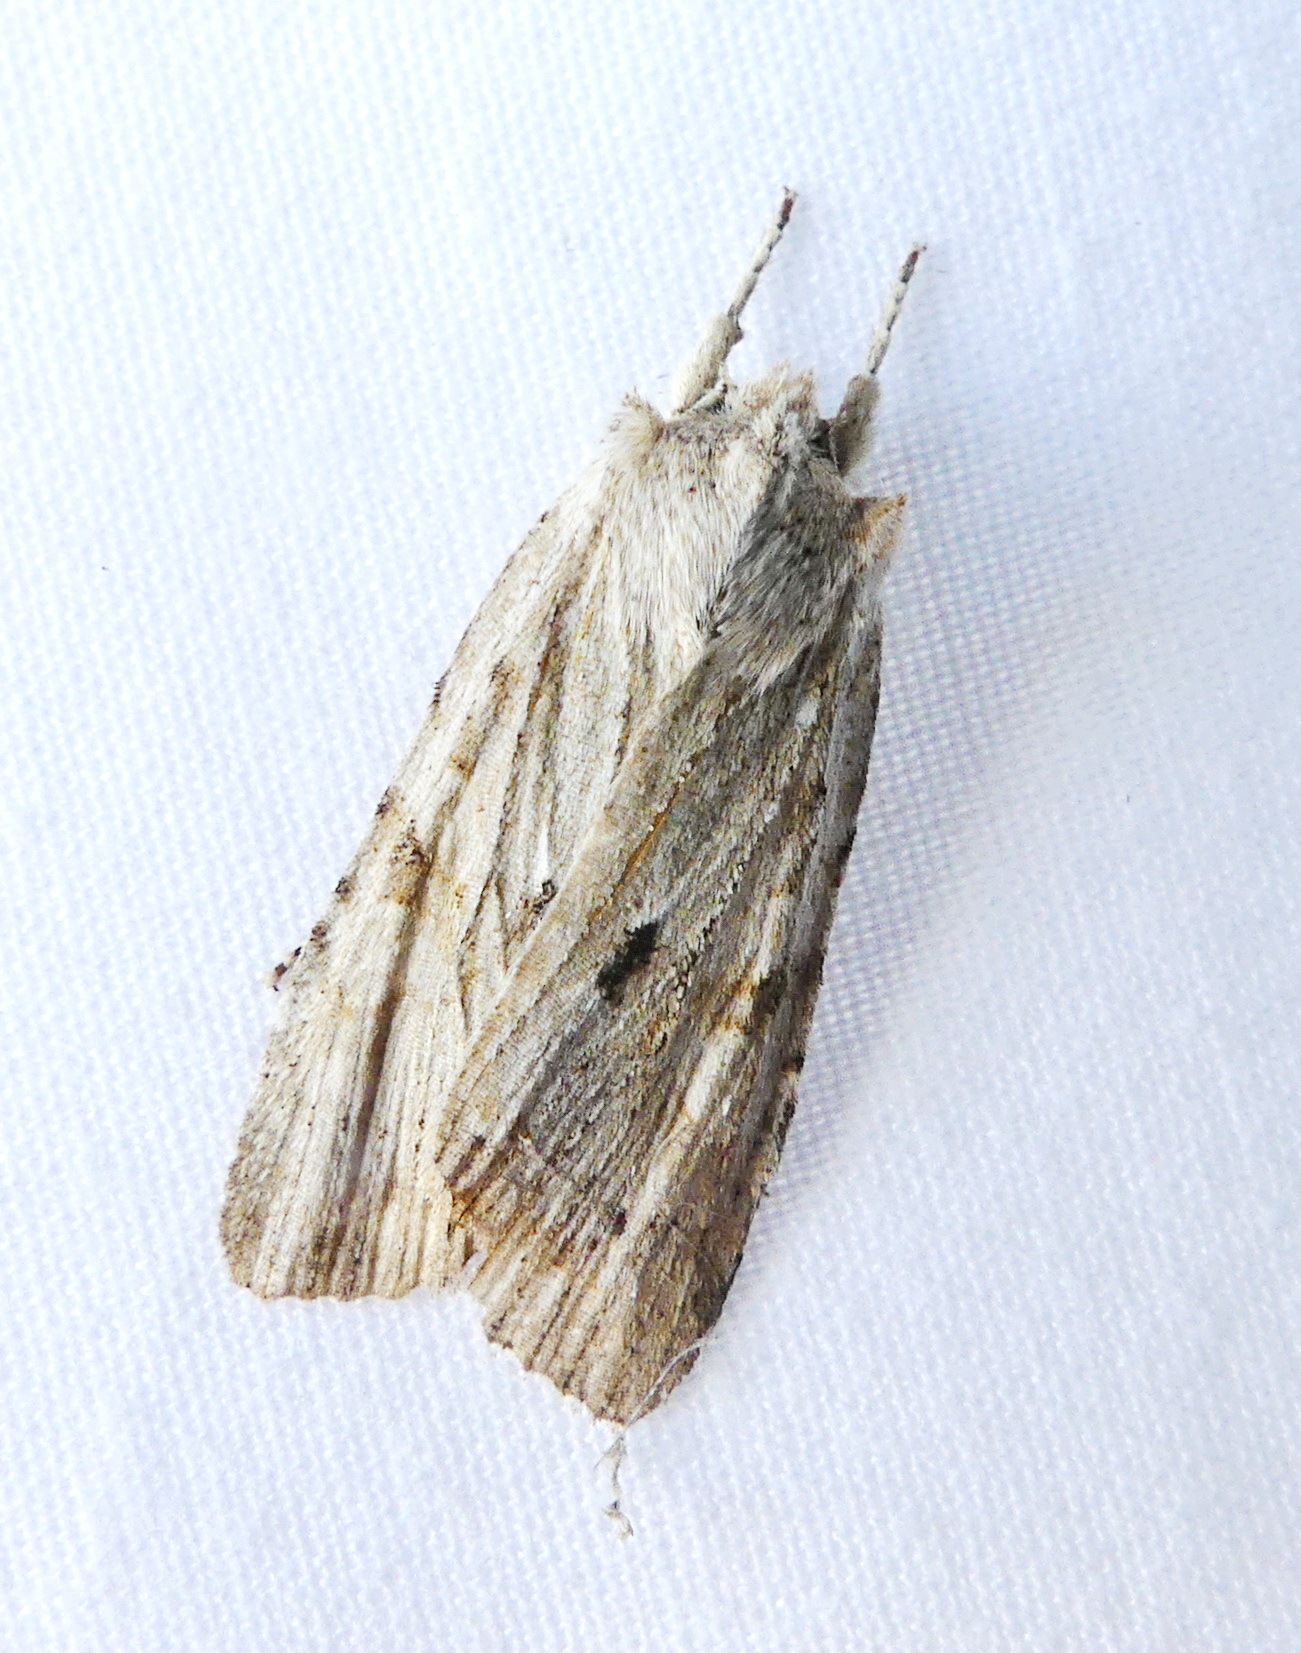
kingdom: Animalia
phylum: Arthropoda
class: Insecta
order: Lepidoptera
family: Noctuidae
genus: Lithophane
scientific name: Lithophane patefacta
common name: Dimorphic pinion moth
